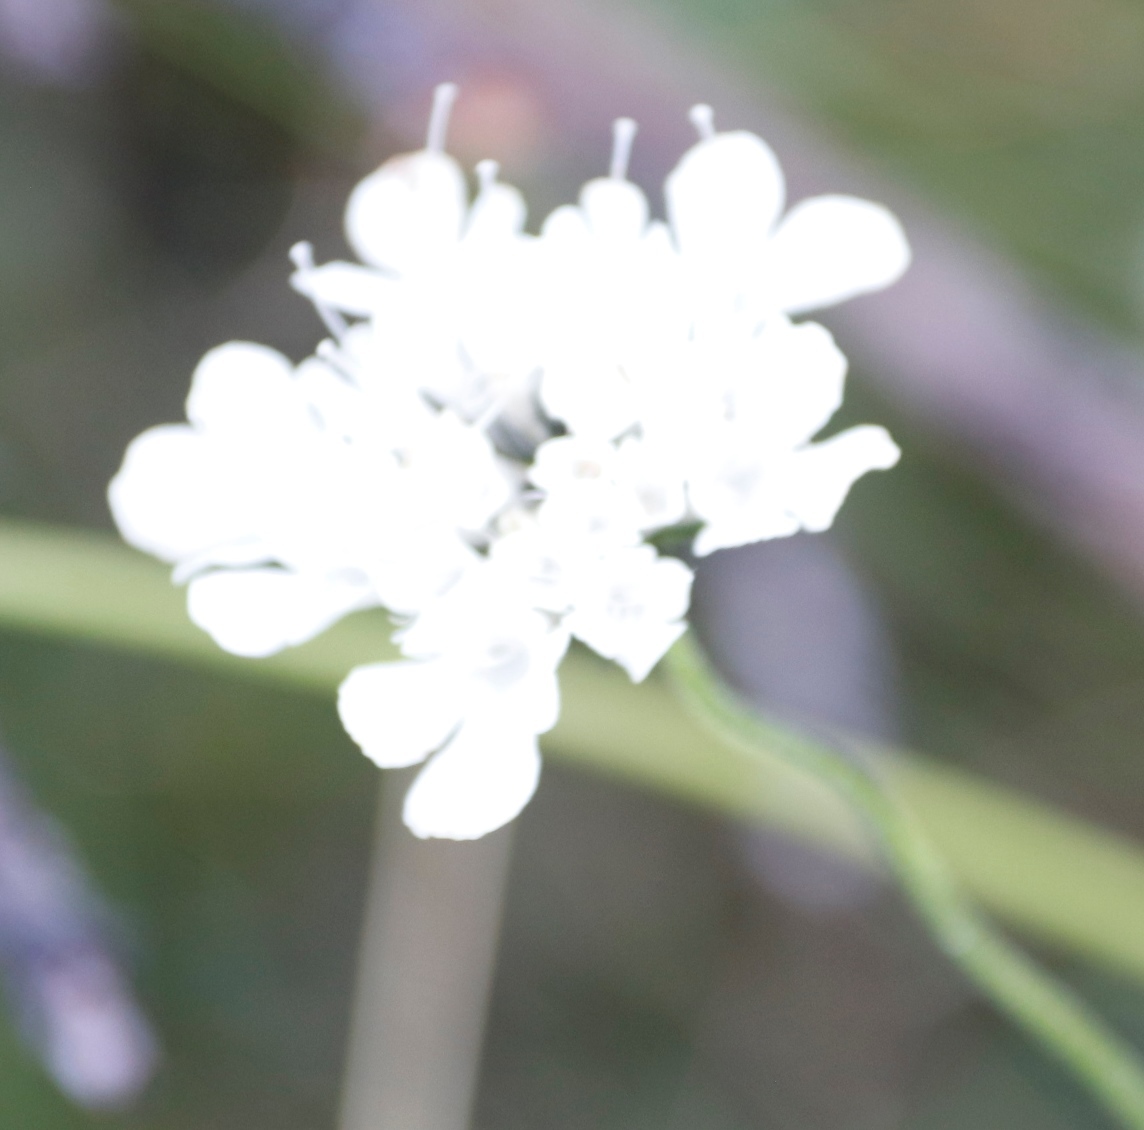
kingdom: Plantae
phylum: Tracheophyta
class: Magnoliopsida
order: Dipsacales
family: Caprifoliaceae
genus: Scabiosa
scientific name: Scabiosa columbaria
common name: Small scabious
